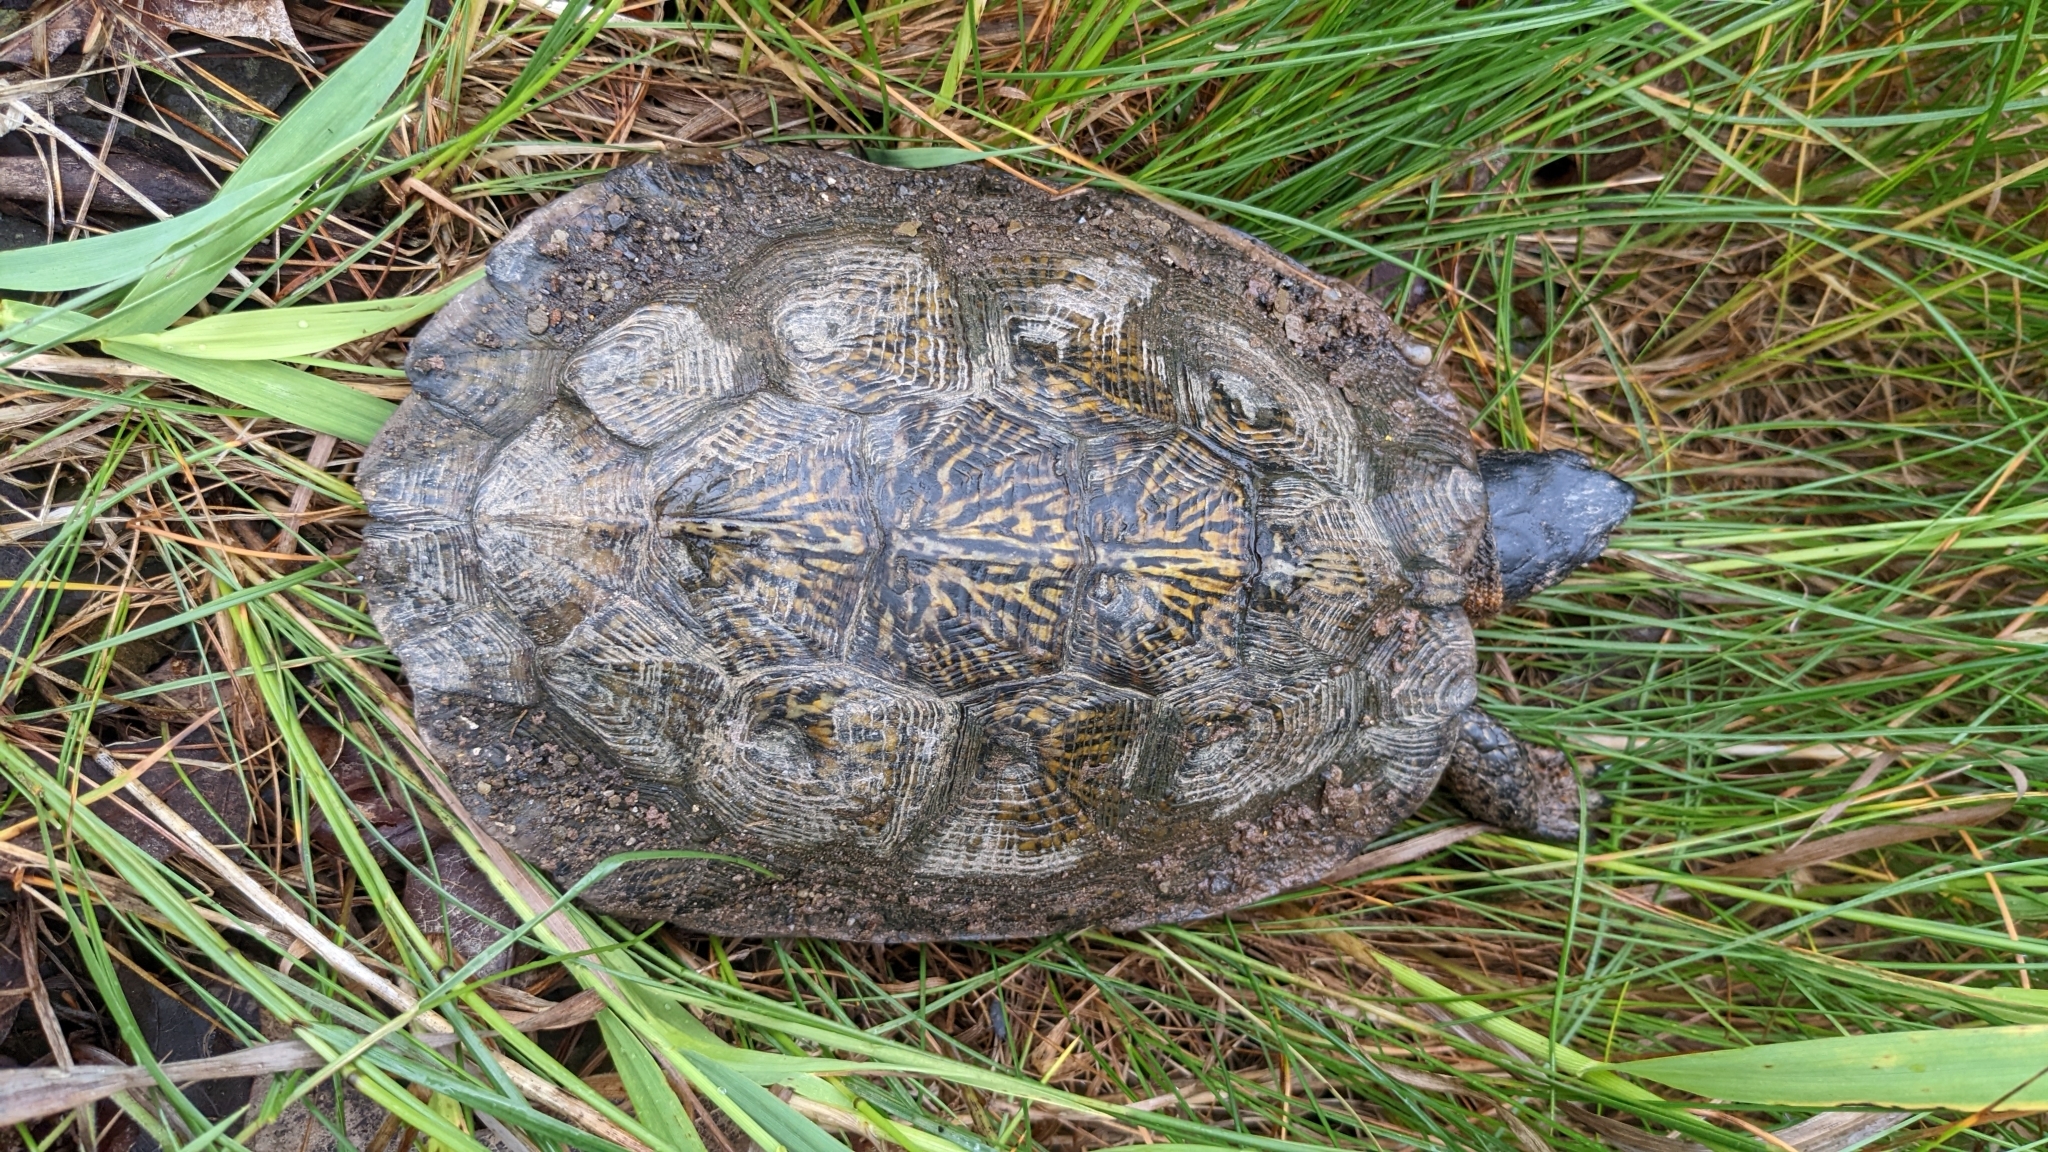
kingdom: Animalia
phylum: Chordata
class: Testudines
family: Emydidae
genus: Glyptemys
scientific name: Glyptemys insculpta
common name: Wood turtle
